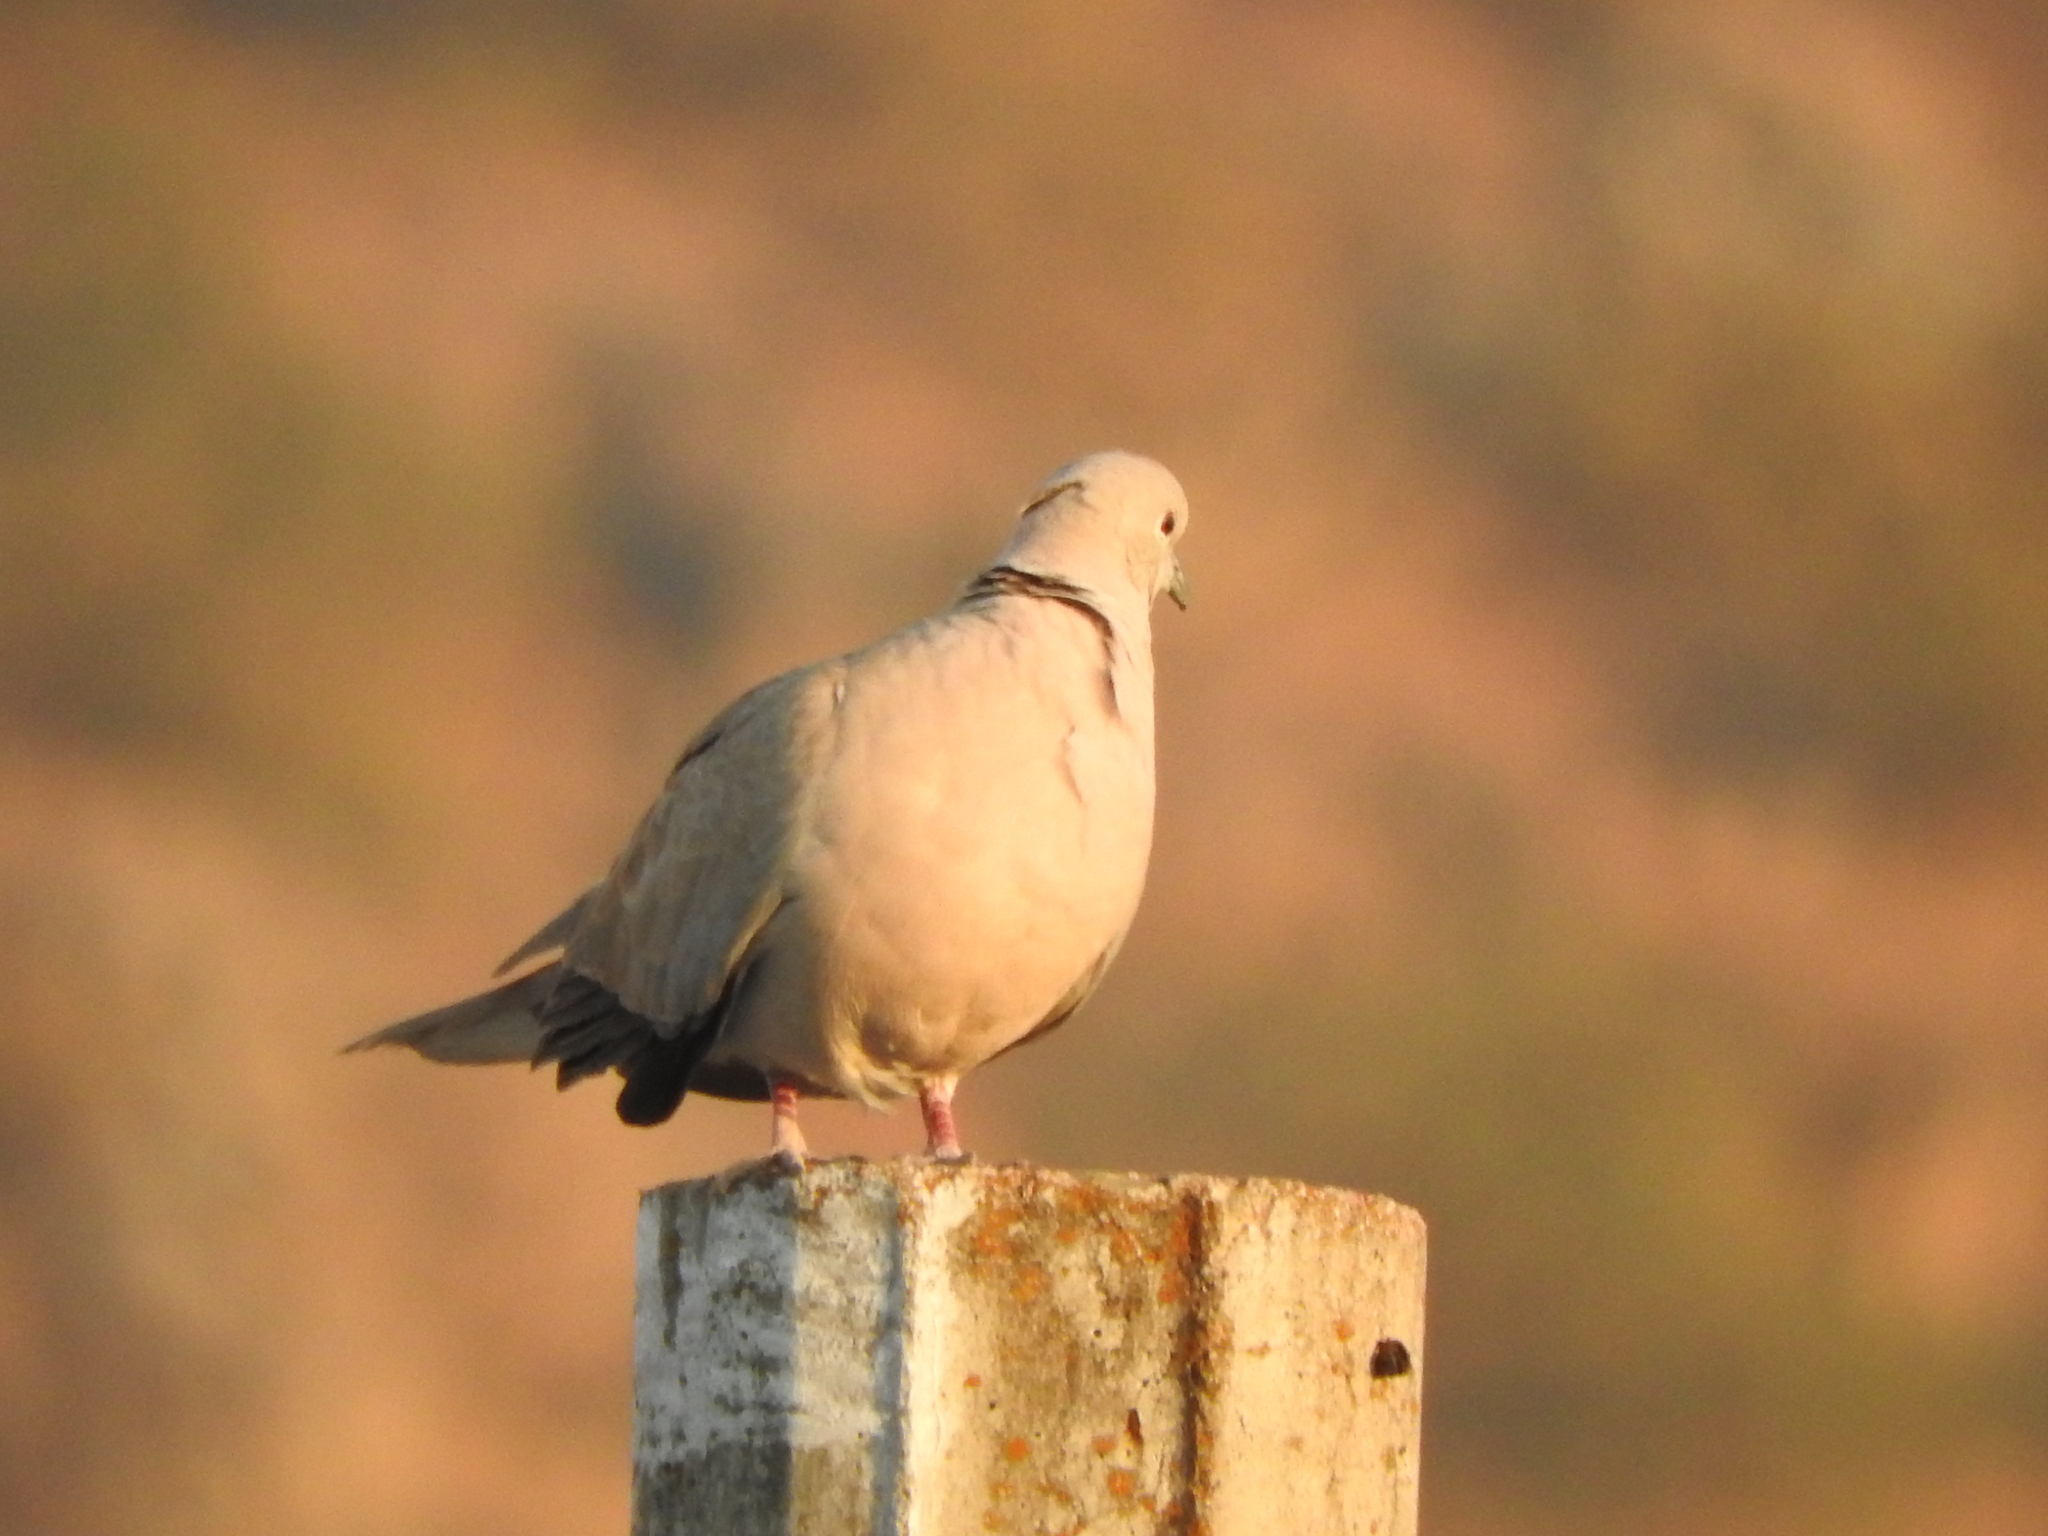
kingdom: Animalia
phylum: Chordata
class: Aves
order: Columbiformes
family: Columbidae
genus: Streptopelia
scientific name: Streptopelia decaocto
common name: Eurasian collared dove
